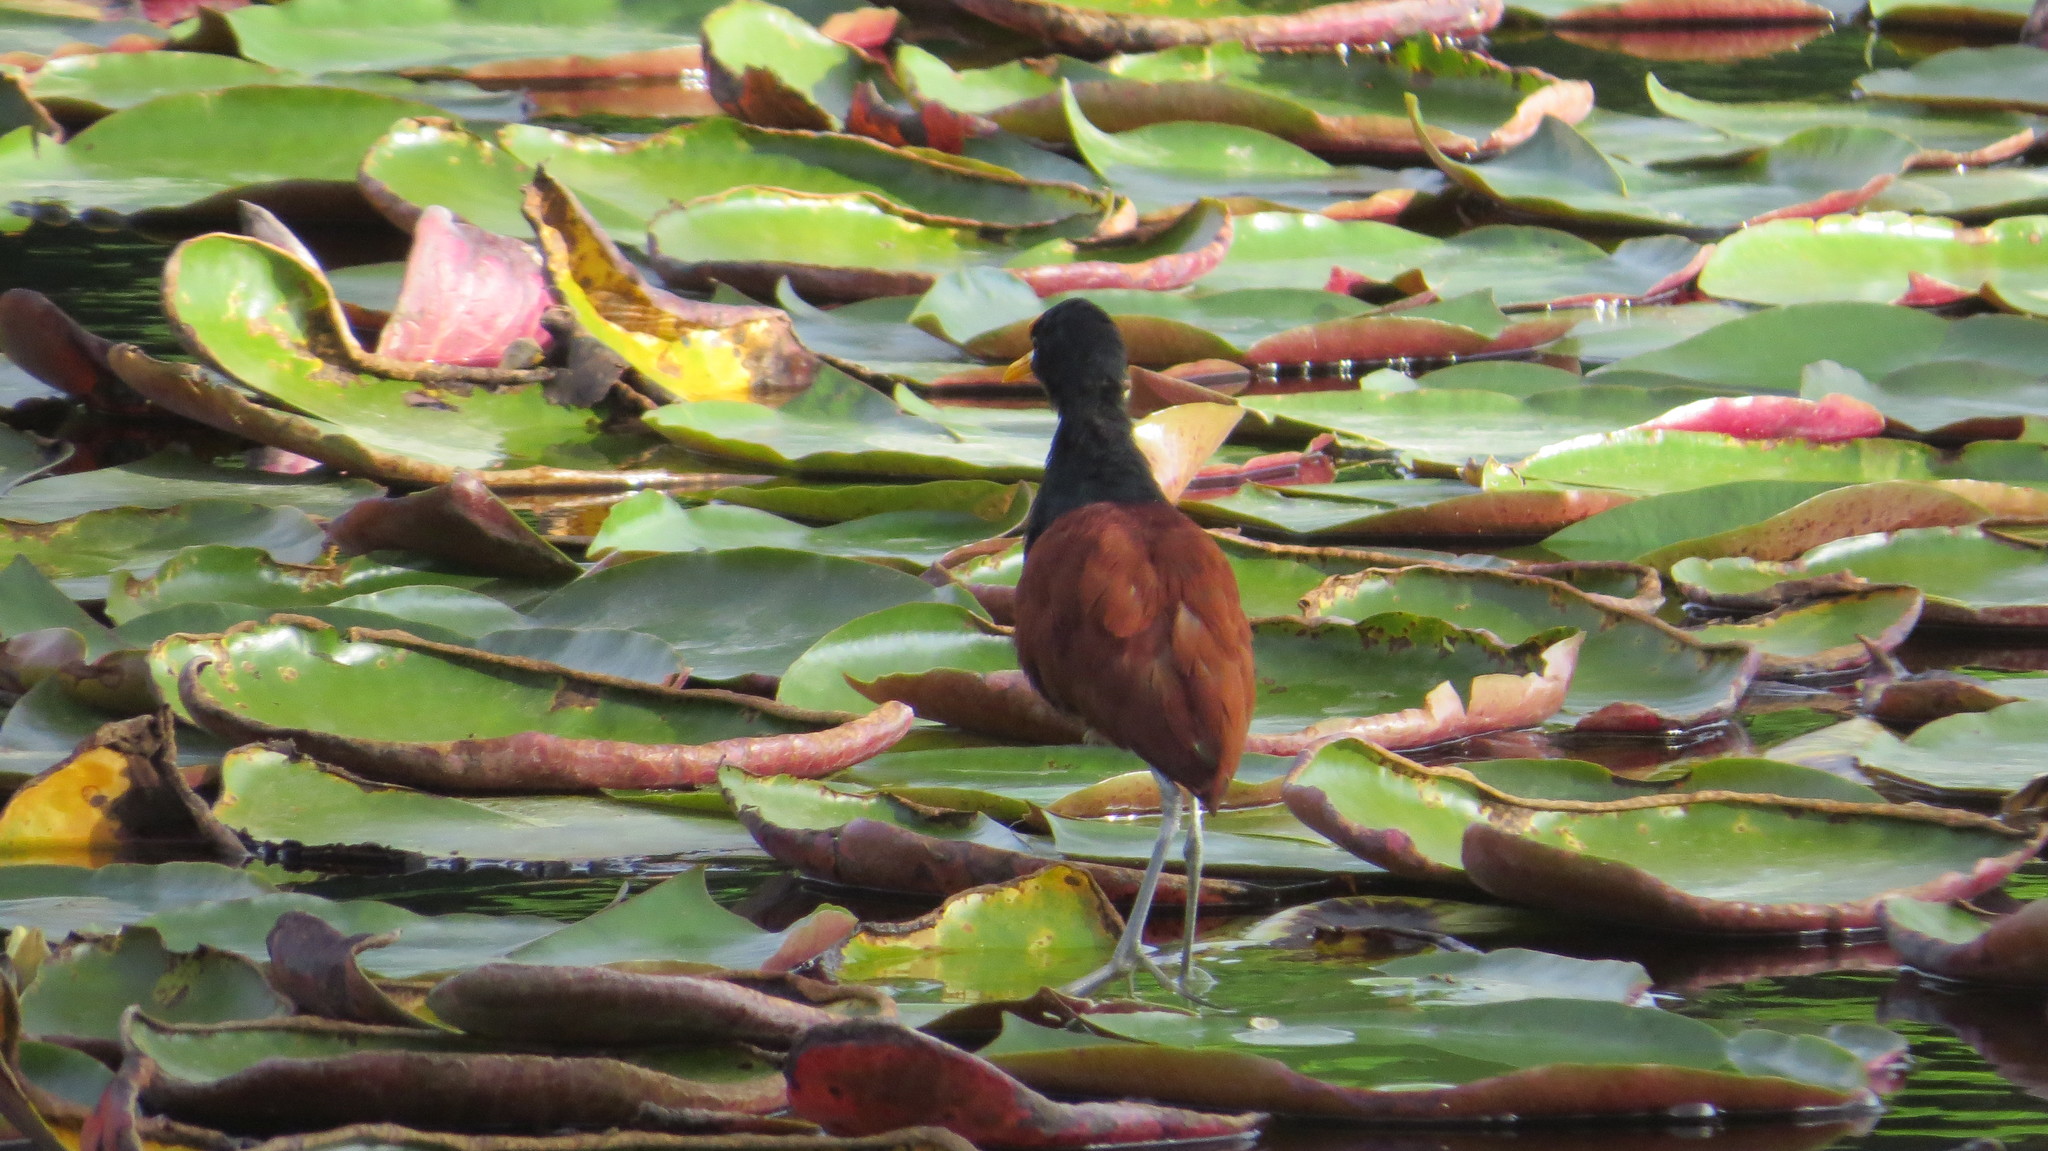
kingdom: Animalia
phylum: Chordata
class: Aves
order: Charadriiformes
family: Jacanidae
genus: Jacana
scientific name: Jacana spinosa
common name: Northern jacana
